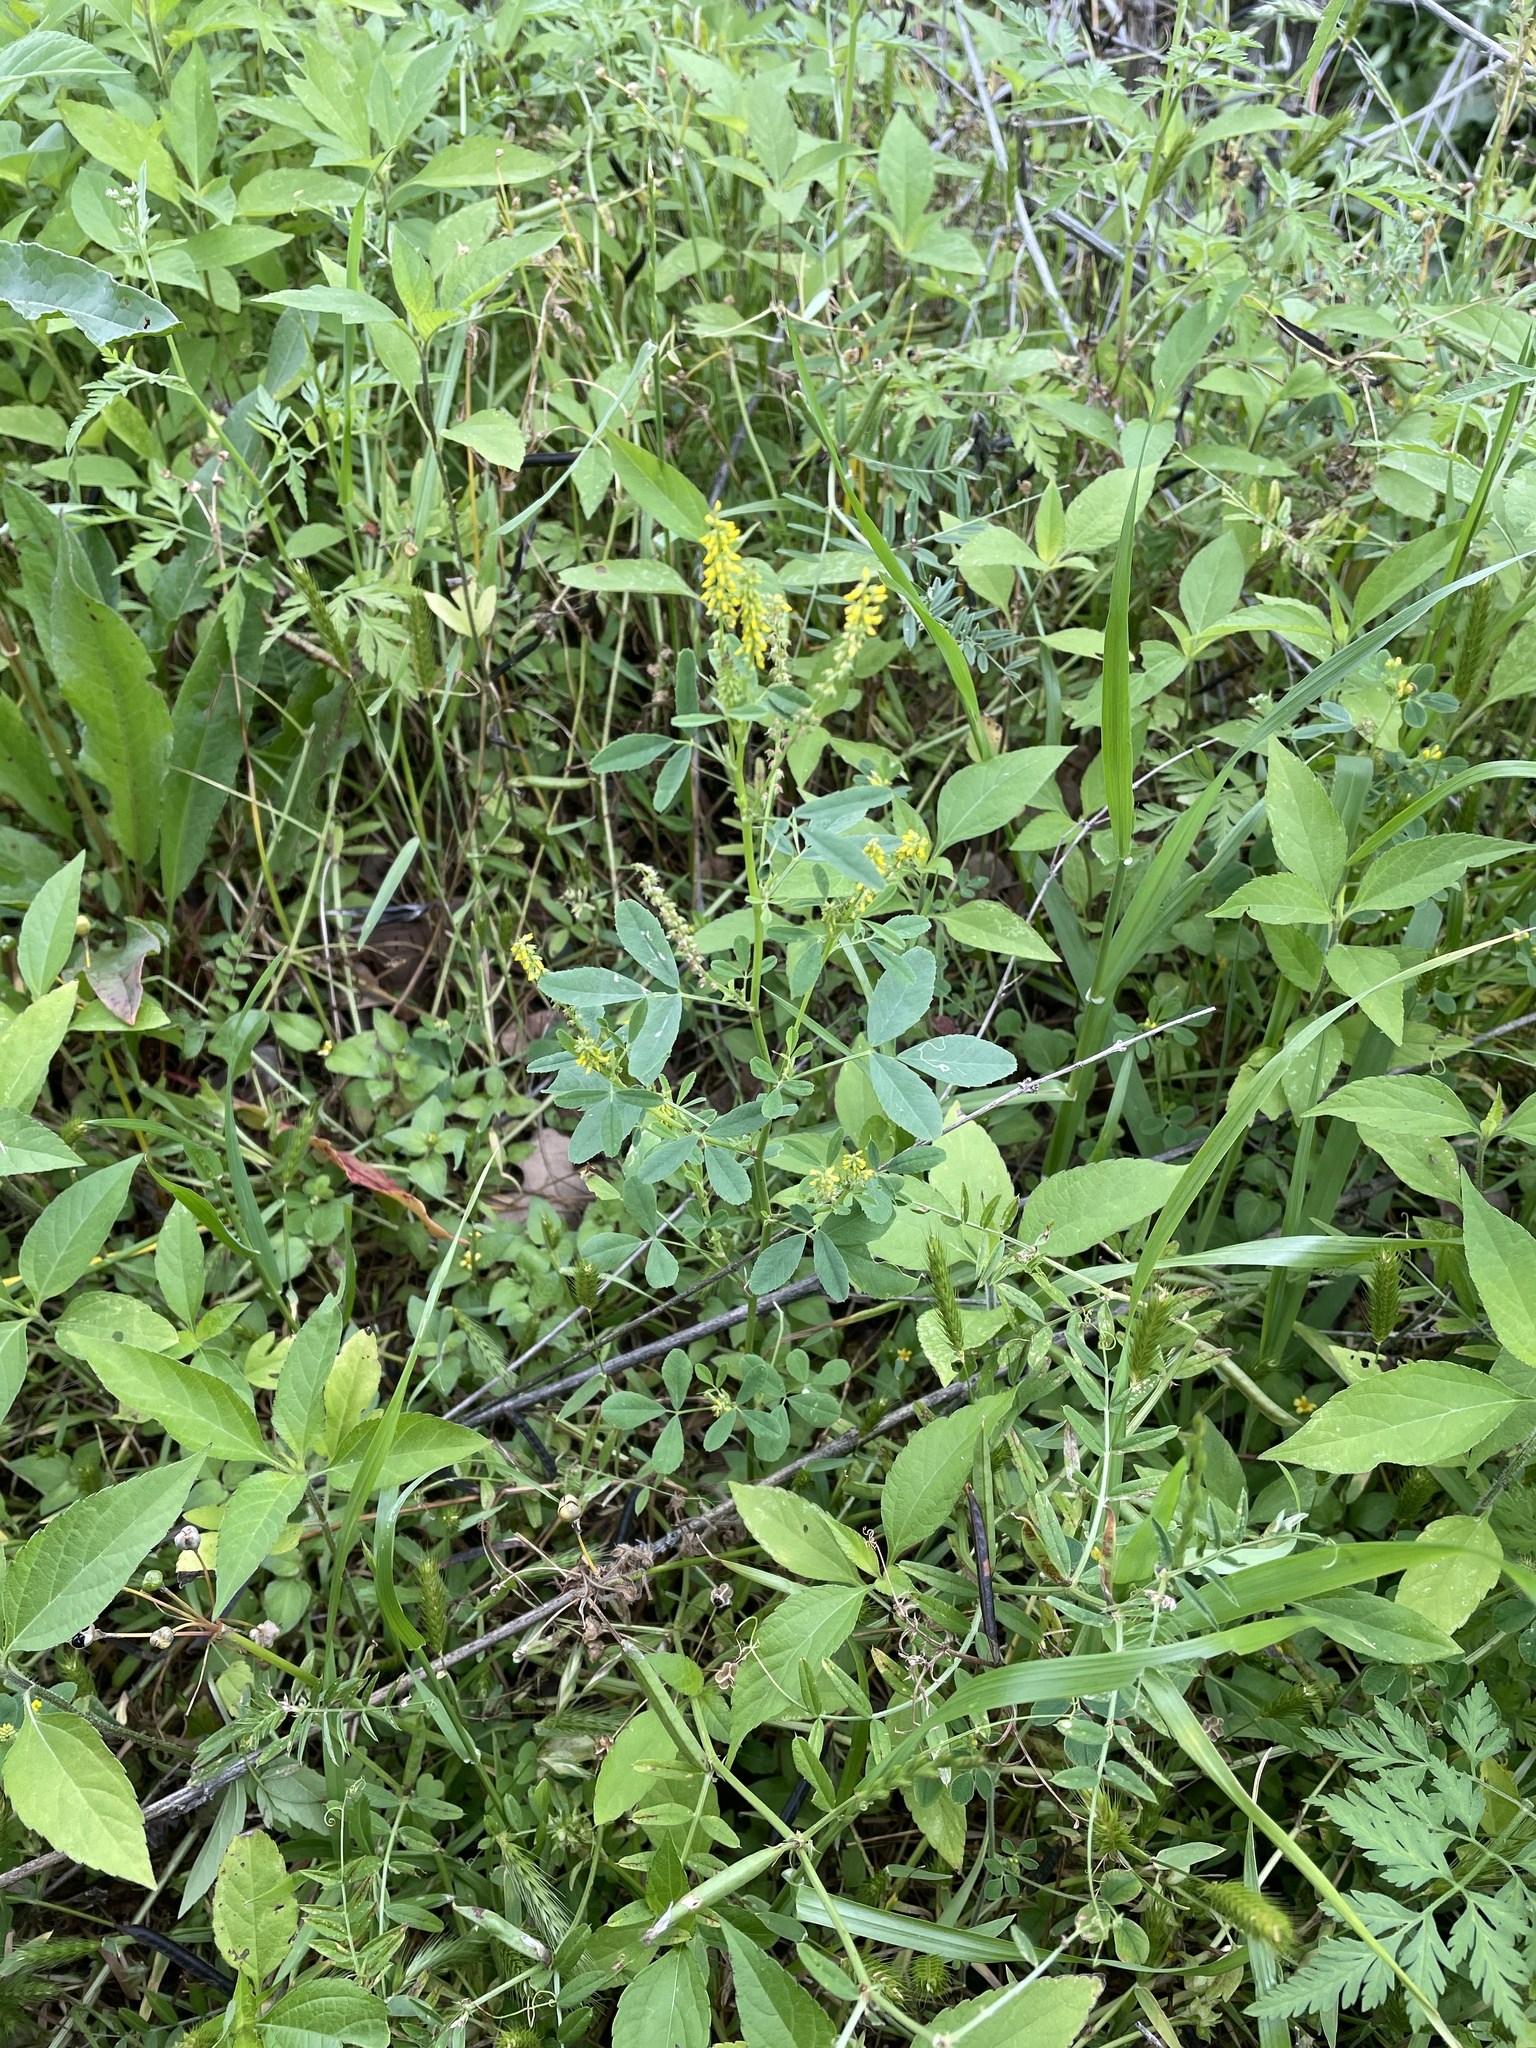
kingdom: Plantae
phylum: Tracheophyta
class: Magnoliopsida
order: Fabales
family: Fabaceae
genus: Melilotus
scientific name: Melilotus indicus
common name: Small melilot
